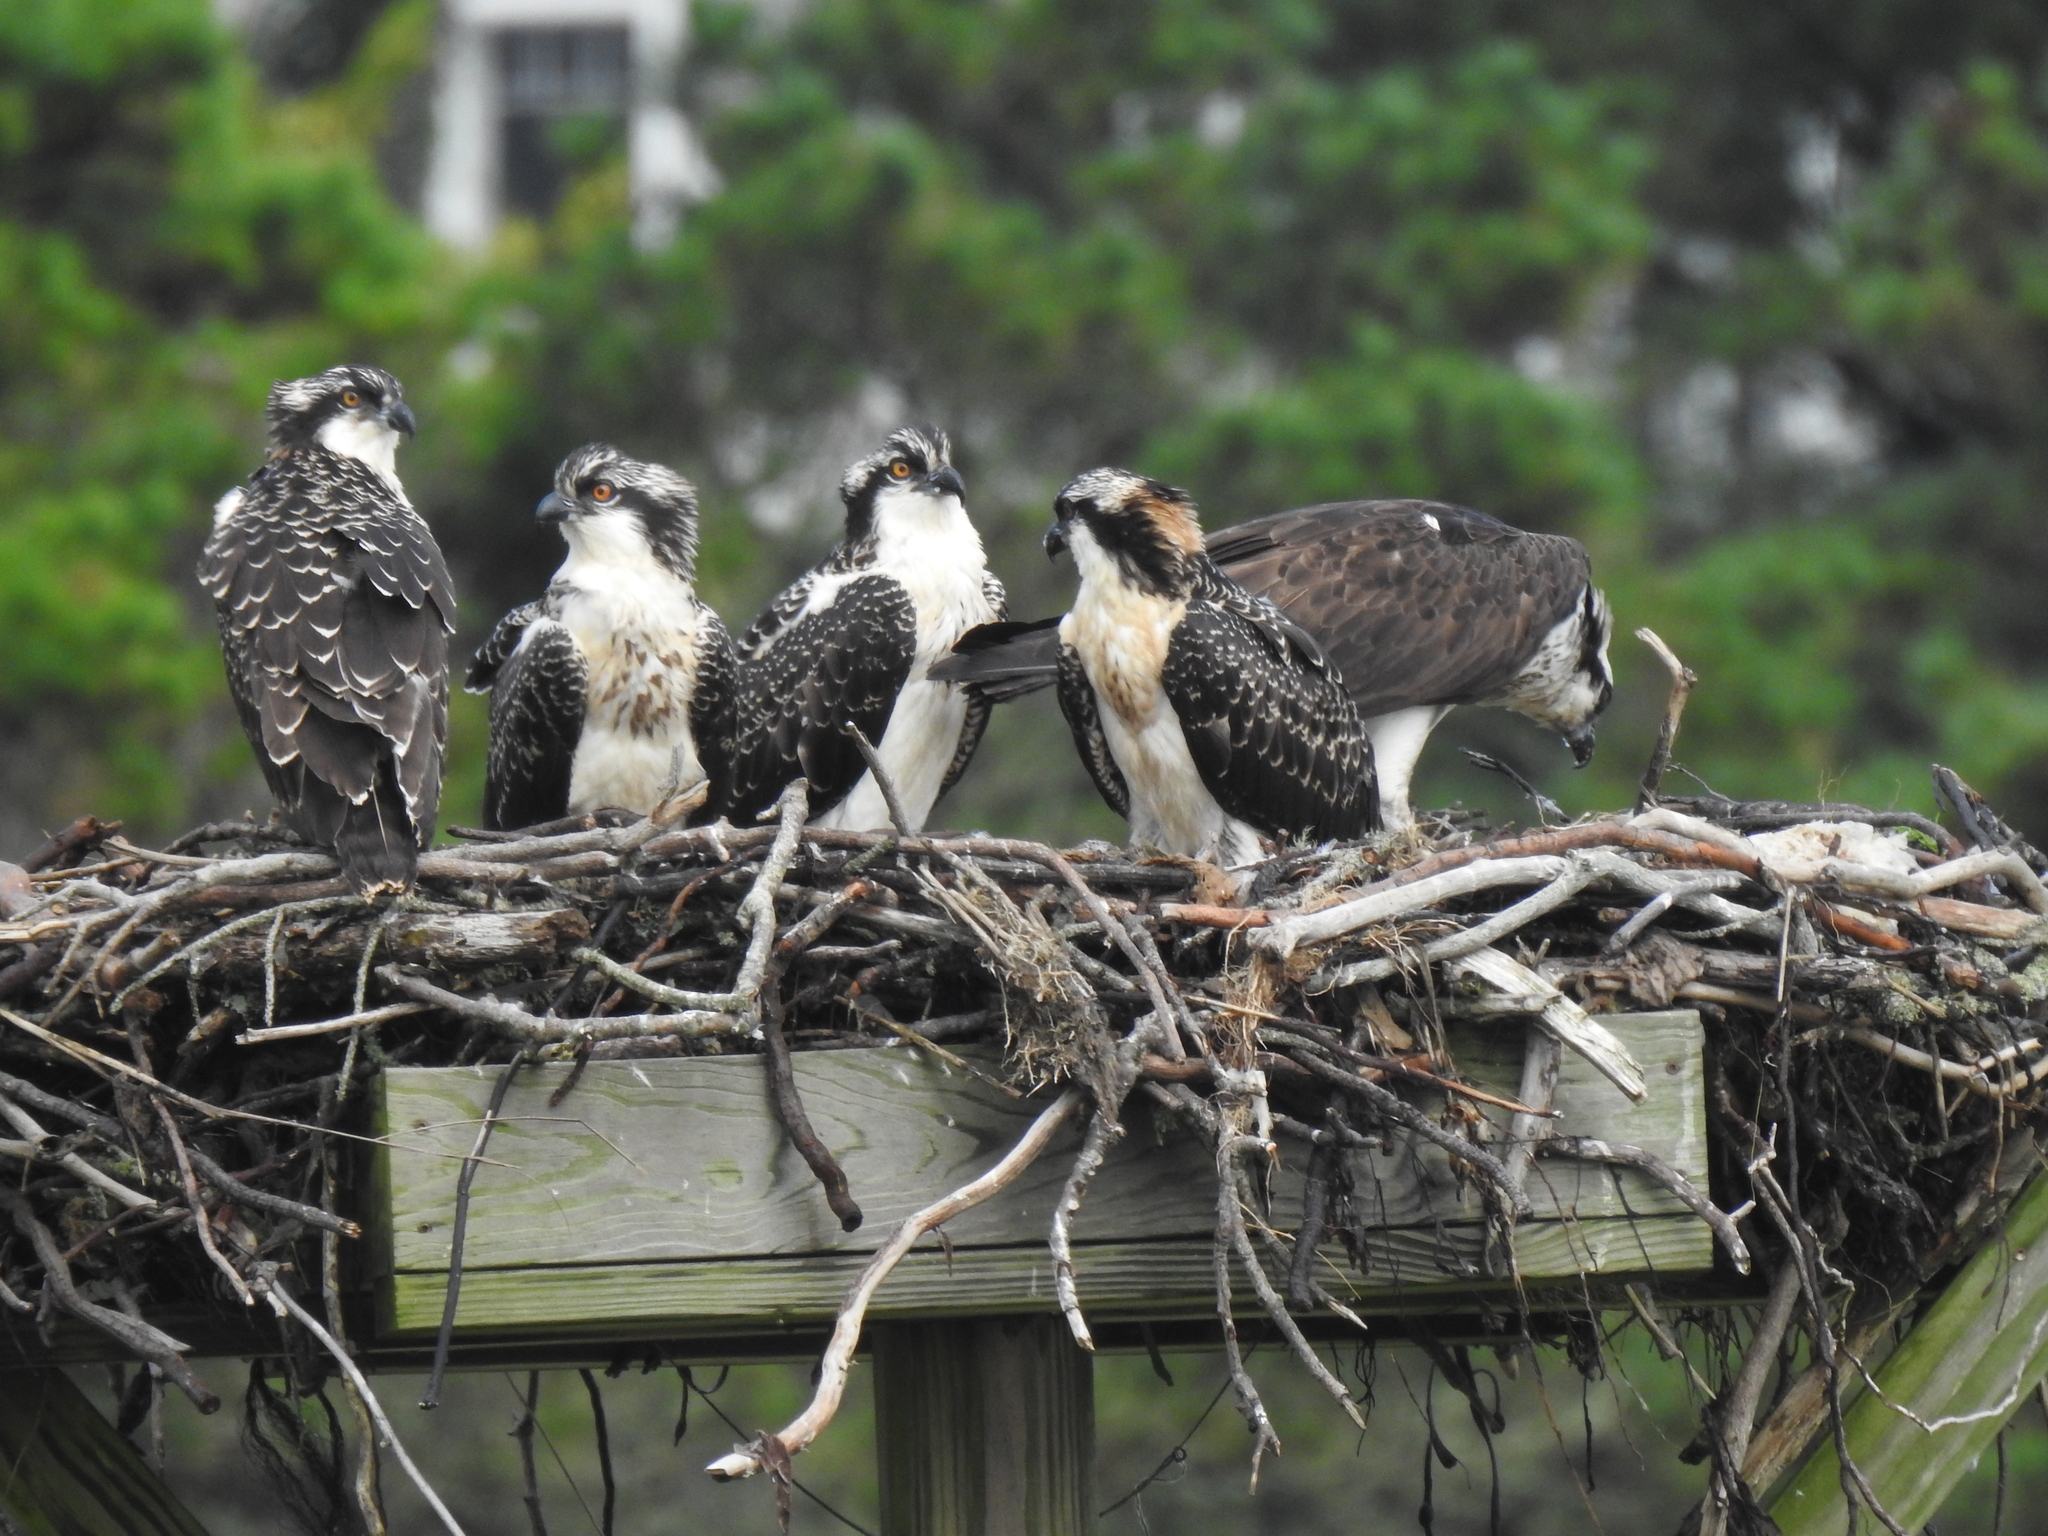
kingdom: Animalia
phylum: Chordata
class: Aves
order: Accipitriformes
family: Pandionidae
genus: Pandion
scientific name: Pandion haliaetus
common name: Osprey
